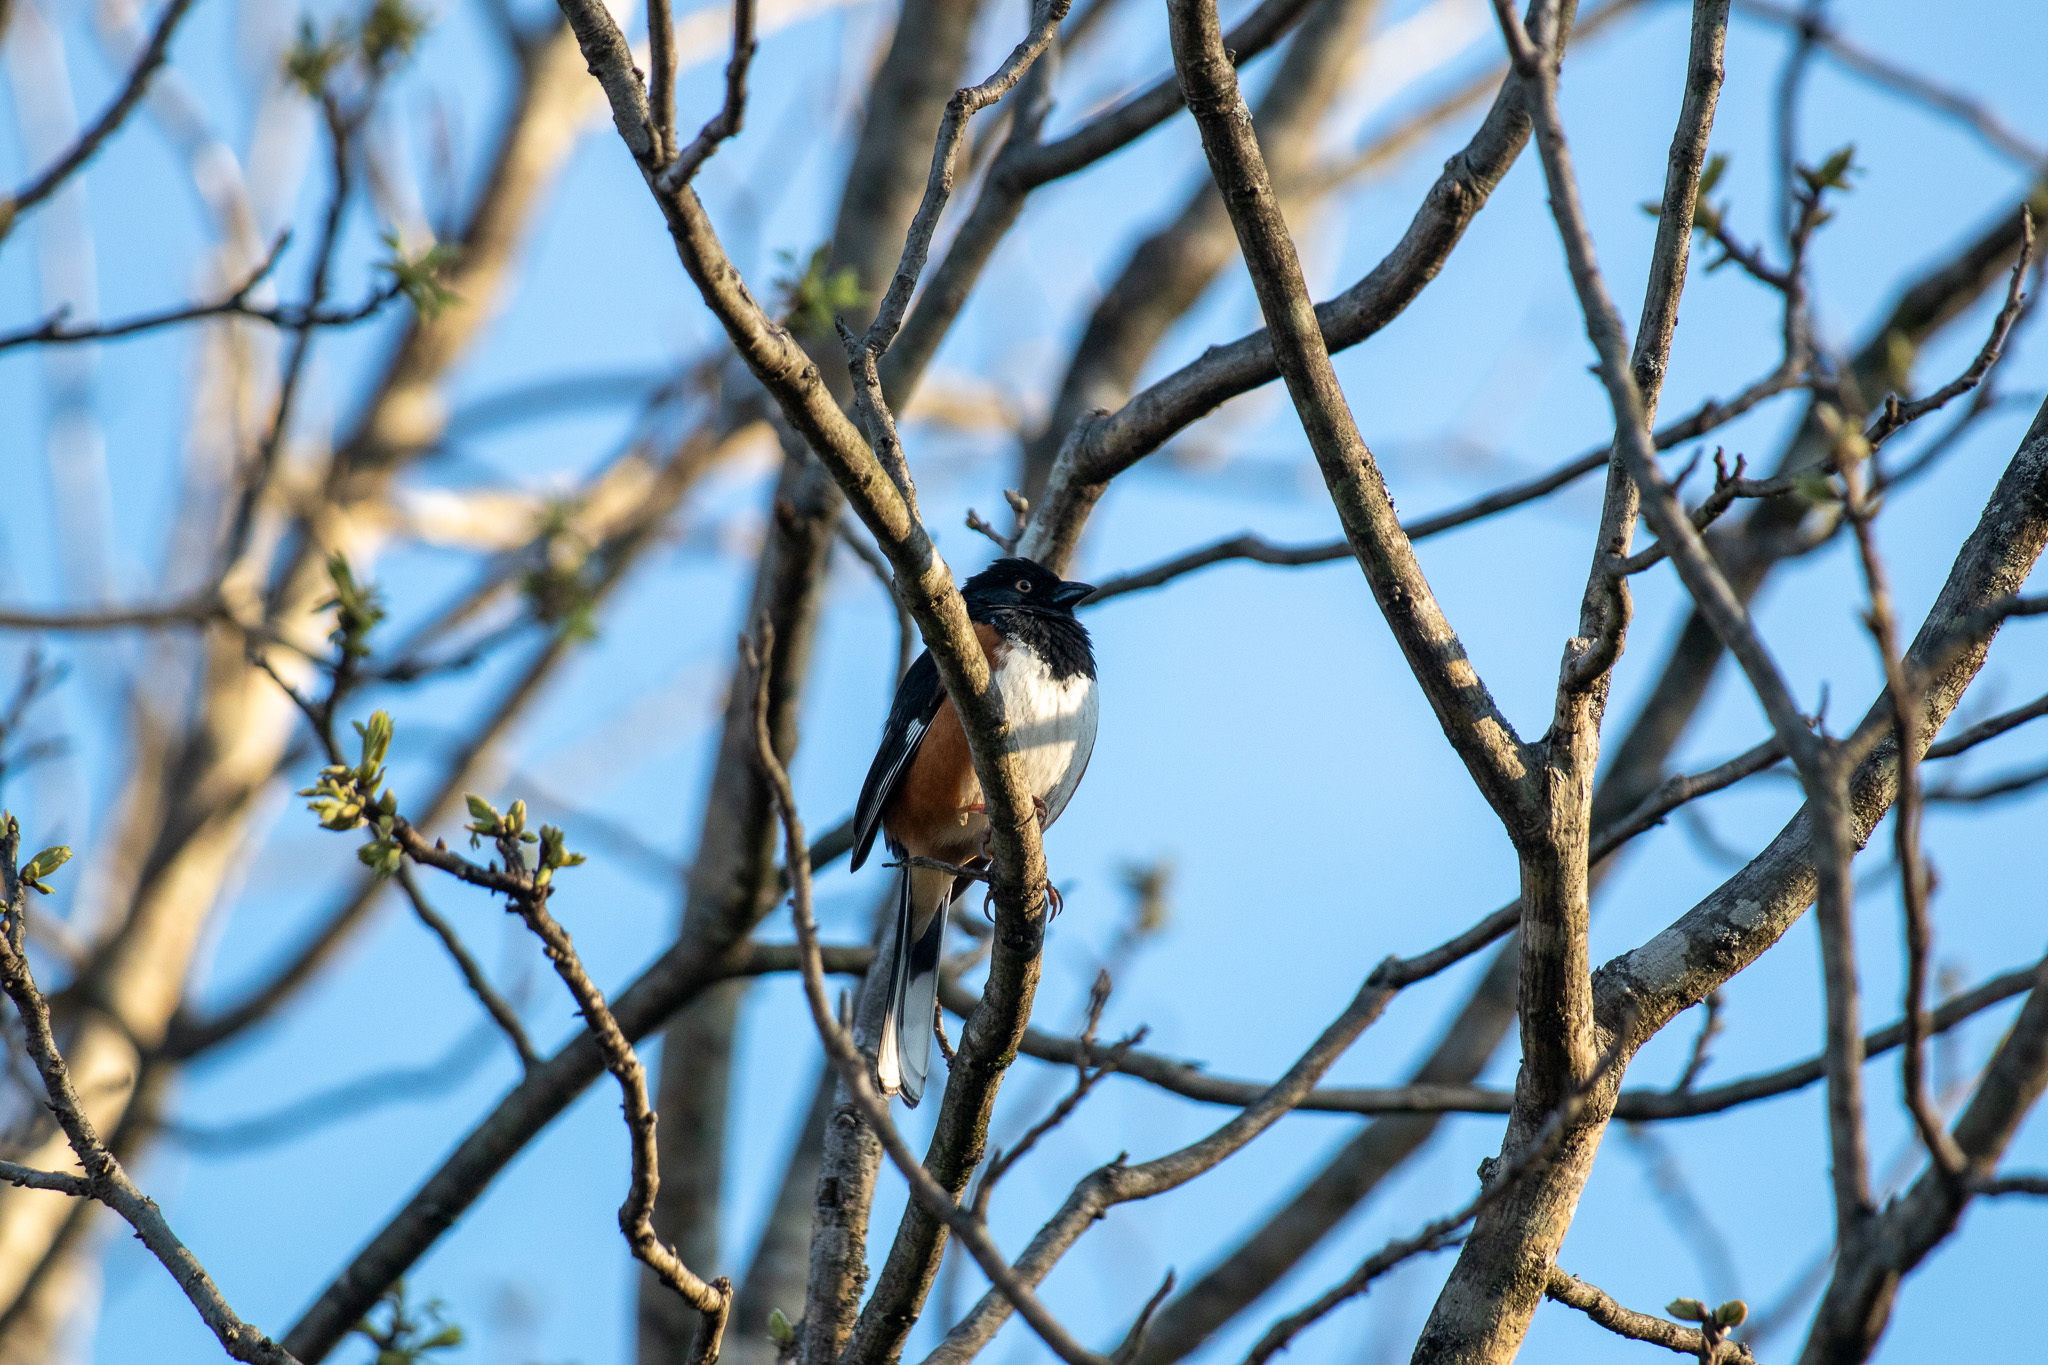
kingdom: Animalia
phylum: Chordata
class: Aves
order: Passeriformes
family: Passerellidae
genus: Pipilo
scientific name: Pipilo erythrophthalmus
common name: Eastern towhee
